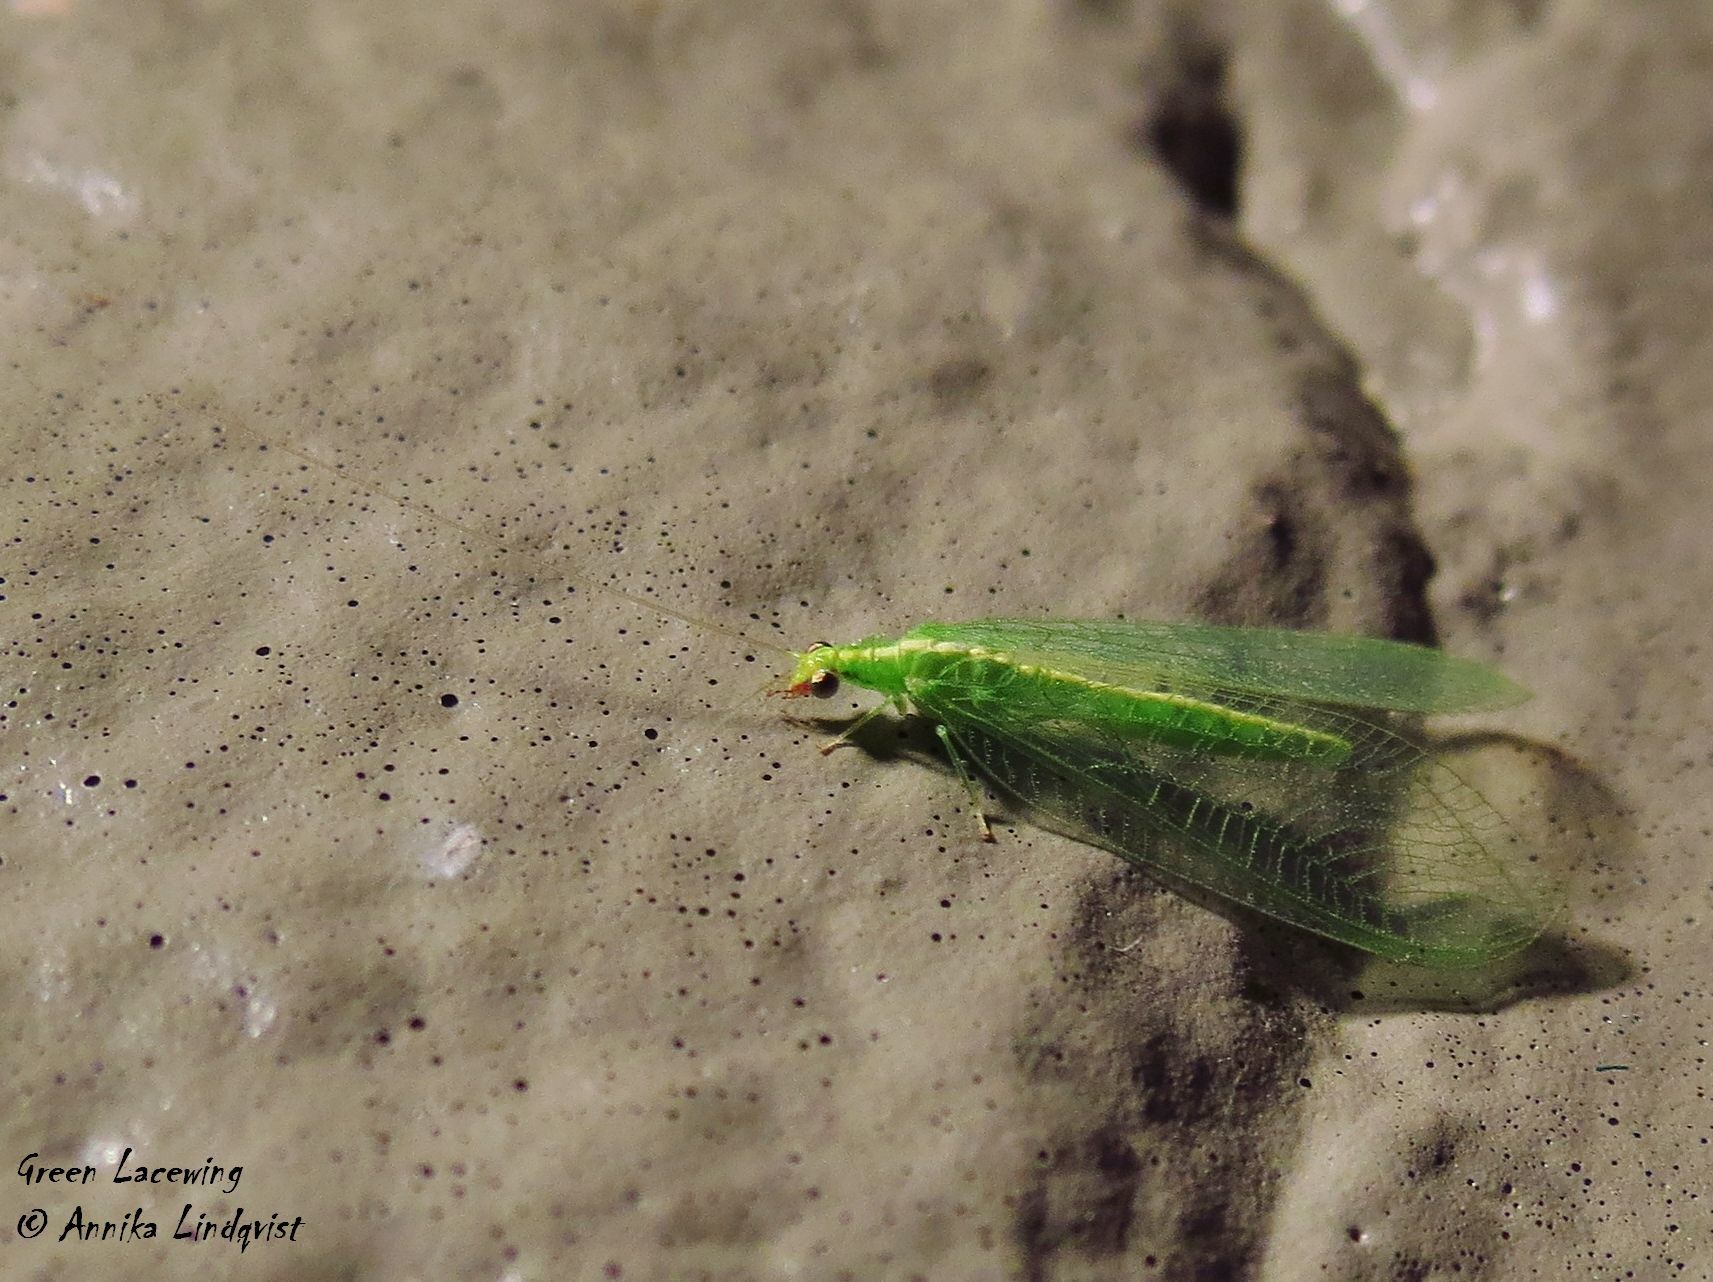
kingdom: Animalia
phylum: Arthropoda
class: Insecta
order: Neuroptera
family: Chrysopidae
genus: Chrysoperla
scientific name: Chrysoperla rufilabris
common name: Red-lipped green lacewing
